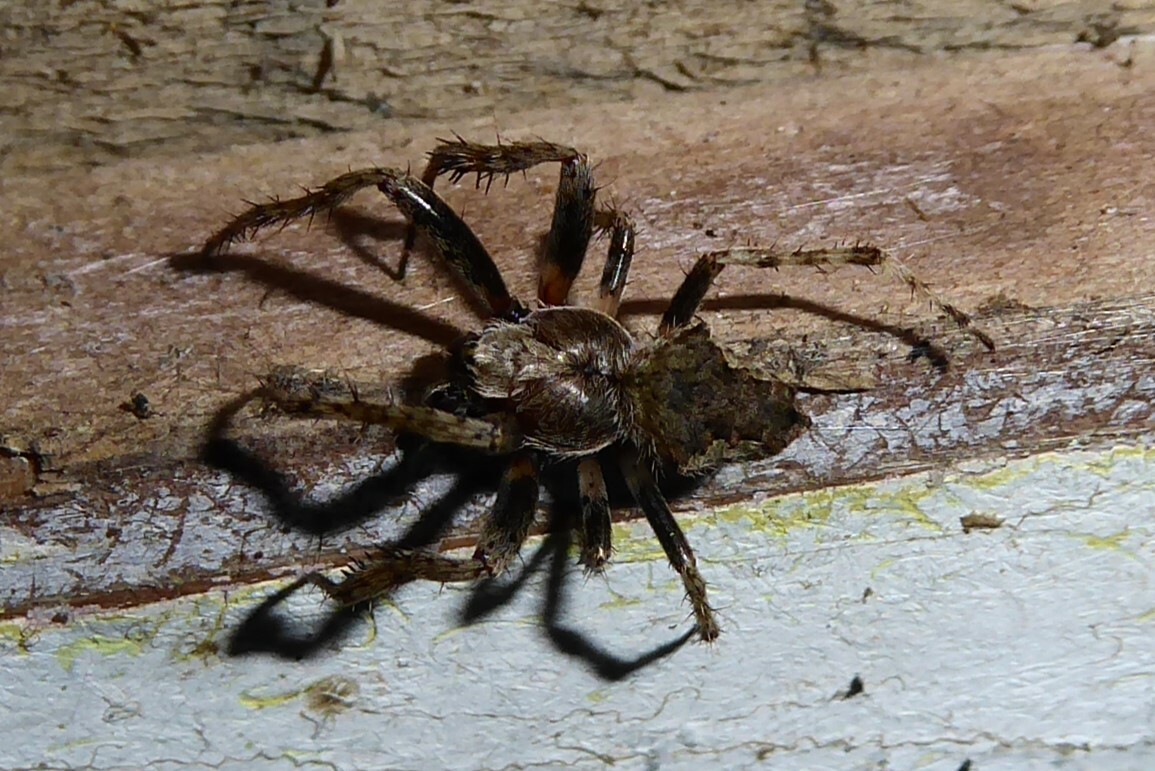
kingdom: Animalia
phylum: Arthropoda
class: Arachnida
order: Araneae
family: Araneidae
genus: Eriophora
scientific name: Eriophora pustulosa
